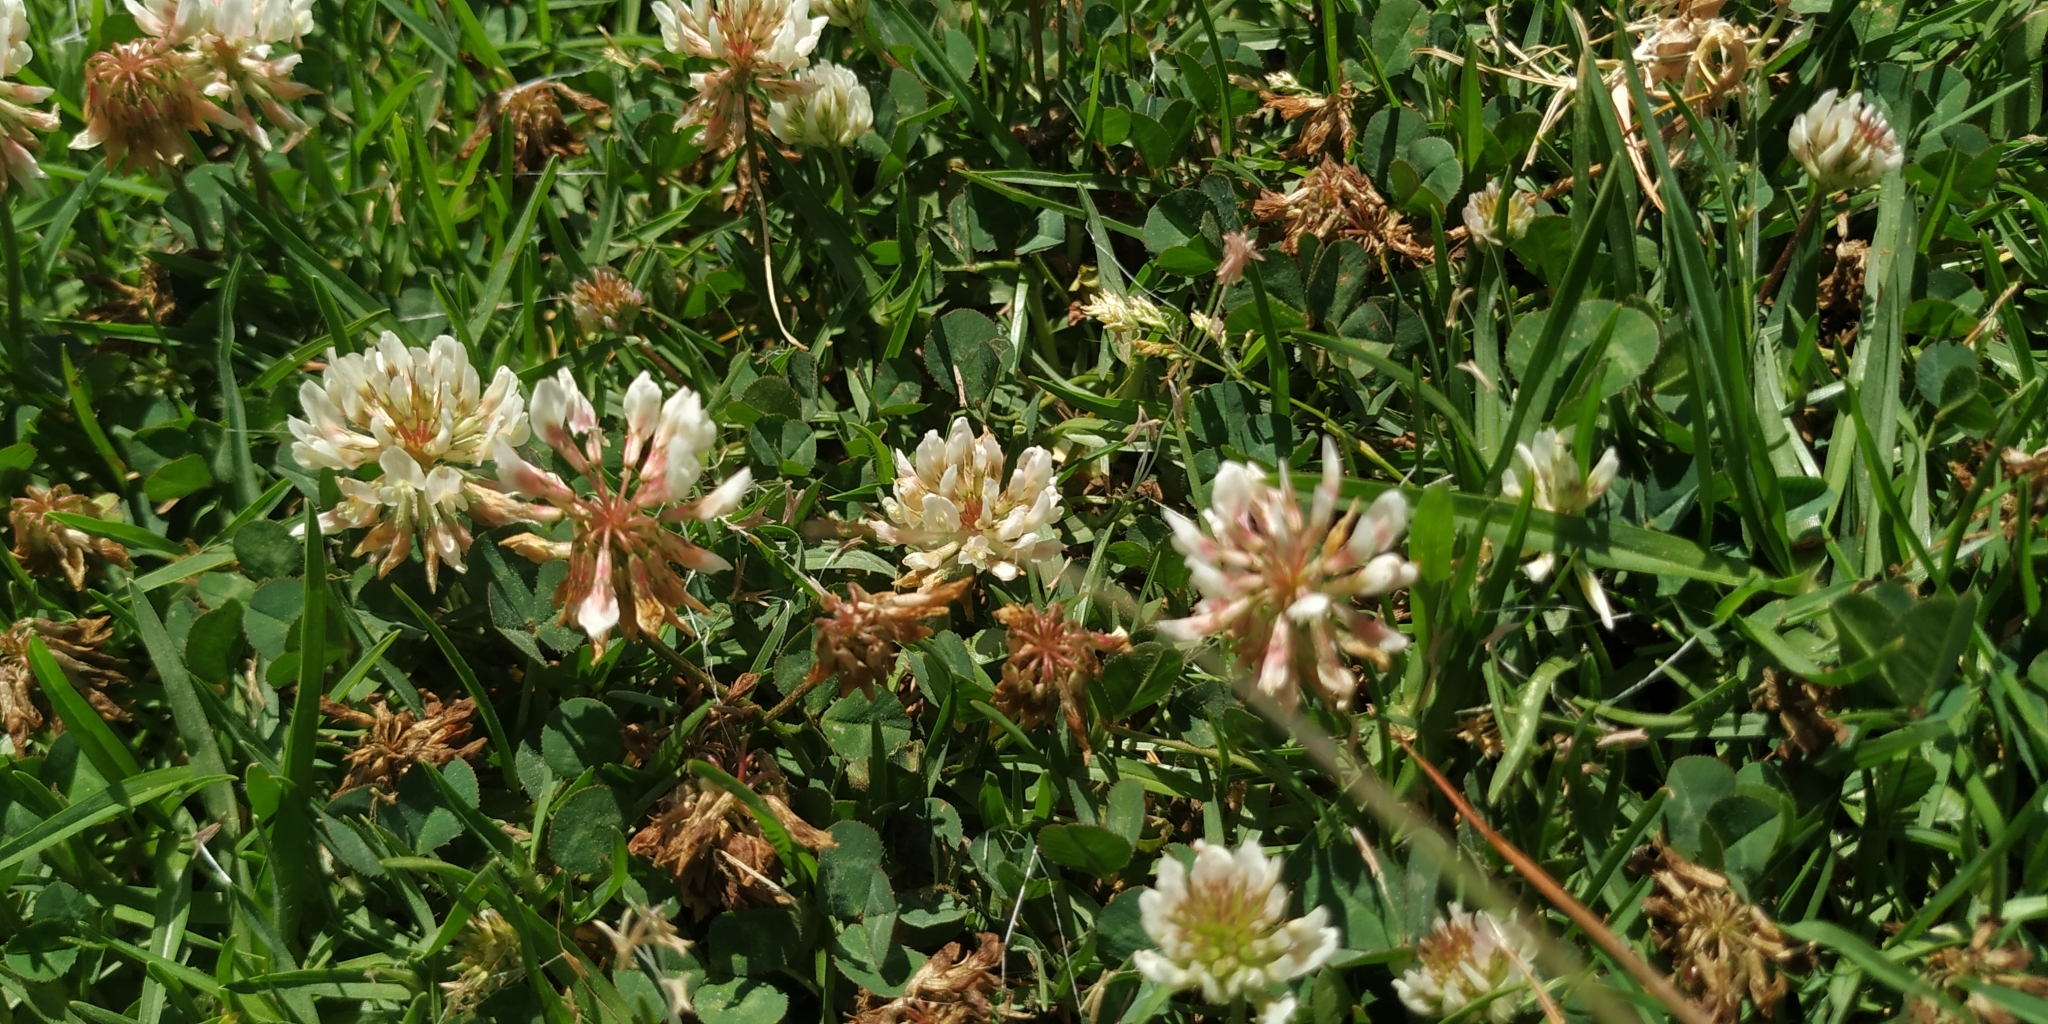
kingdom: Plantae
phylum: Tracheophyta
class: Magnoliopsida
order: Fabales
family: Fabaceae
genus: Trifolium
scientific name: Trifolium repens
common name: White clover
